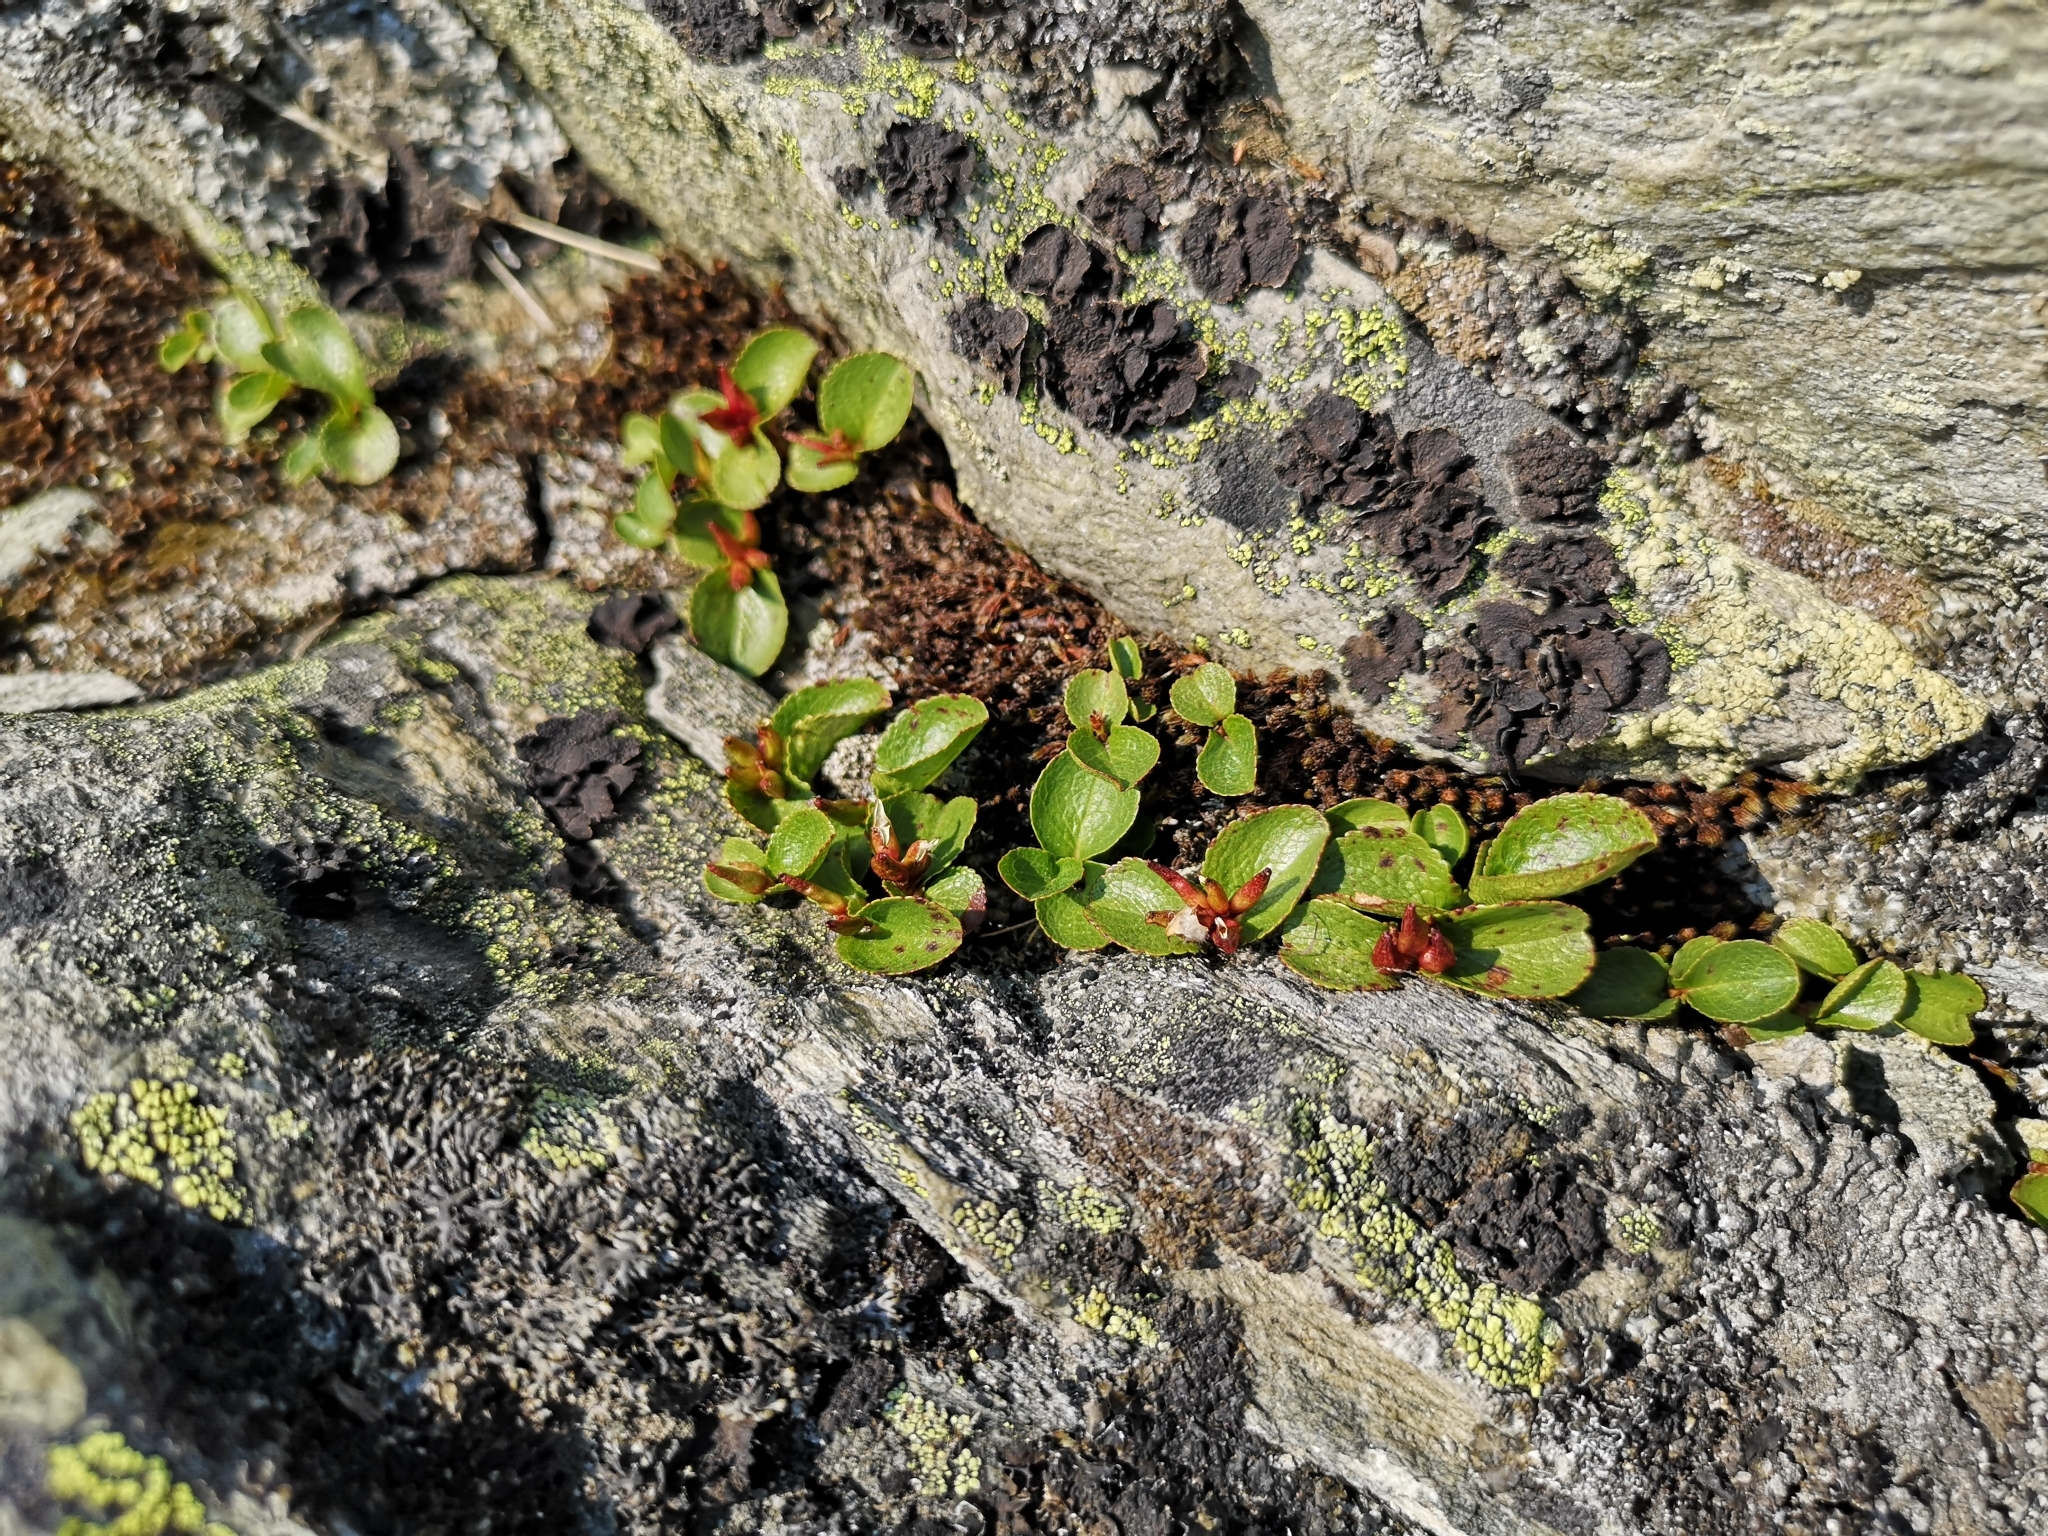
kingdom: Plantae
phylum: Tracheophyta
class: Magnoliopsida
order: Malpighiales
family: Salicaceae
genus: Salix
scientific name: Salix herbacea
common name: Dwarf willow
